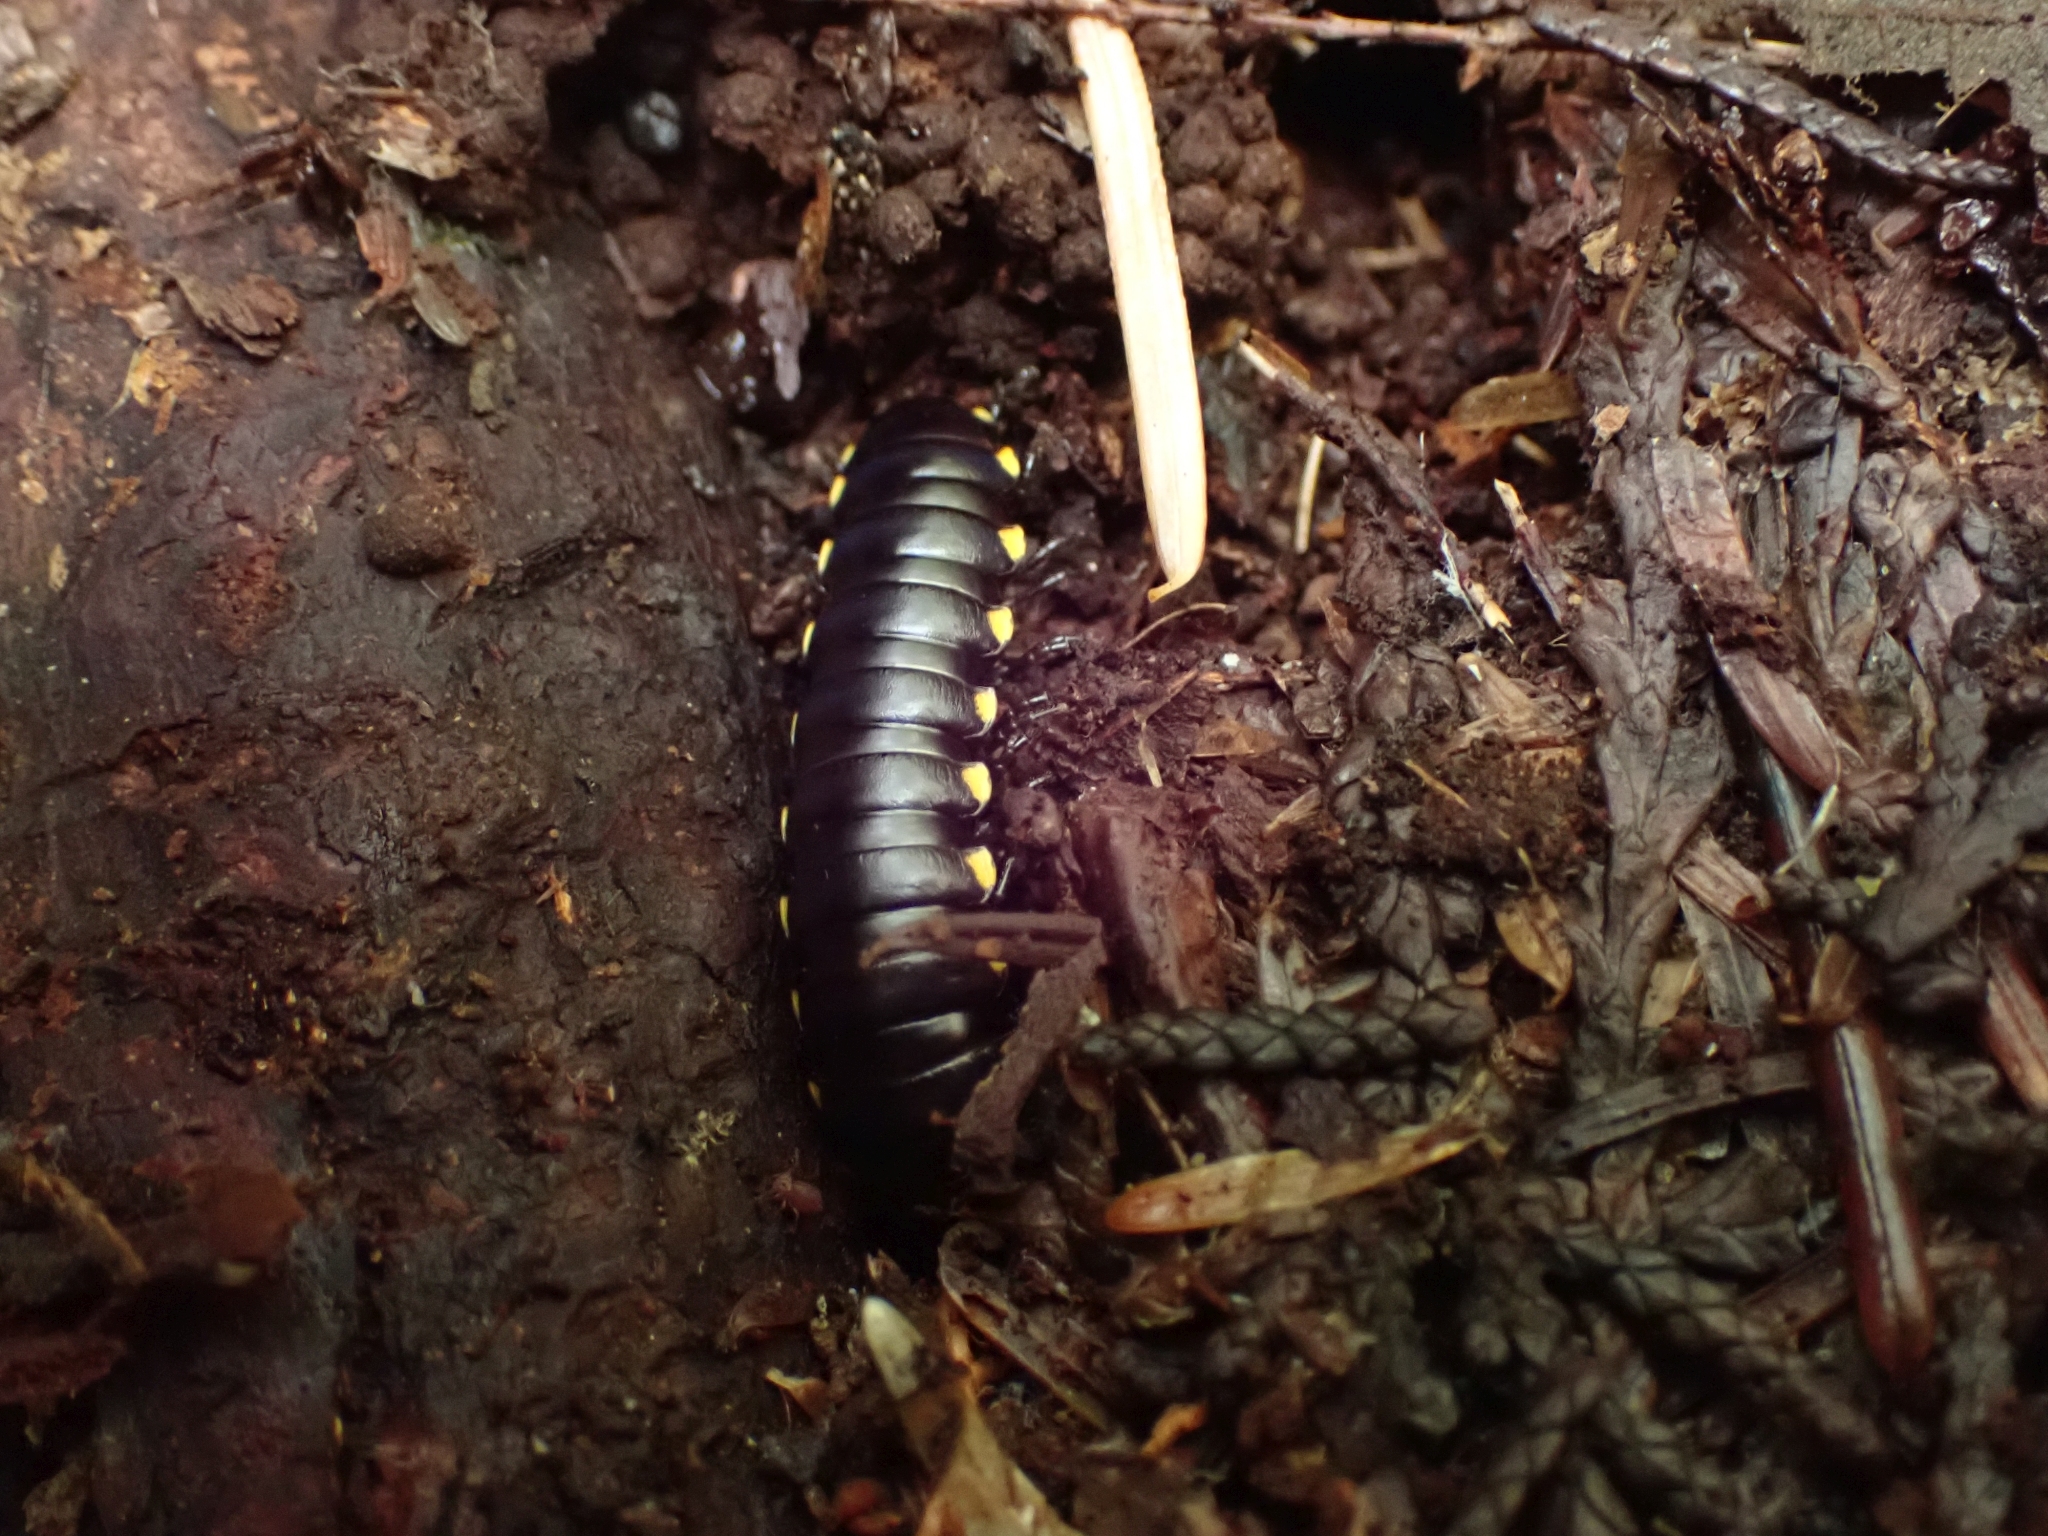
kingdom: Animalia
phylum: Arthropoda
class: Diplopoda
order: Polydesmida
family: Xystodesmidae
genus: Harpaphe
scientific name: Harpaphe haydeniana
